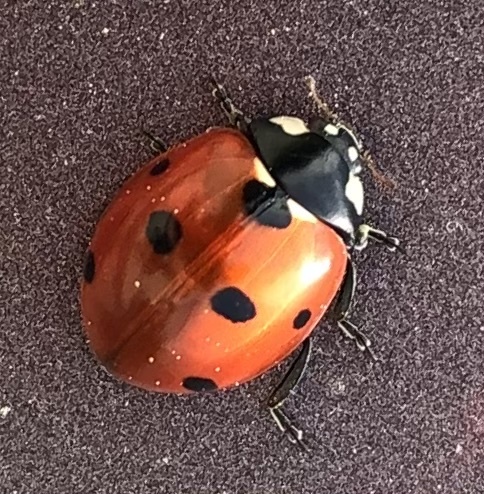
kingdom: Animalia
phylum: Arthropoda
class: Insecta
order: Coleoptera
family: Coccinellidae
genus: Coccinella
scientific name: Coccinella septempunctata
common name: Sevenspotted lady beetle
